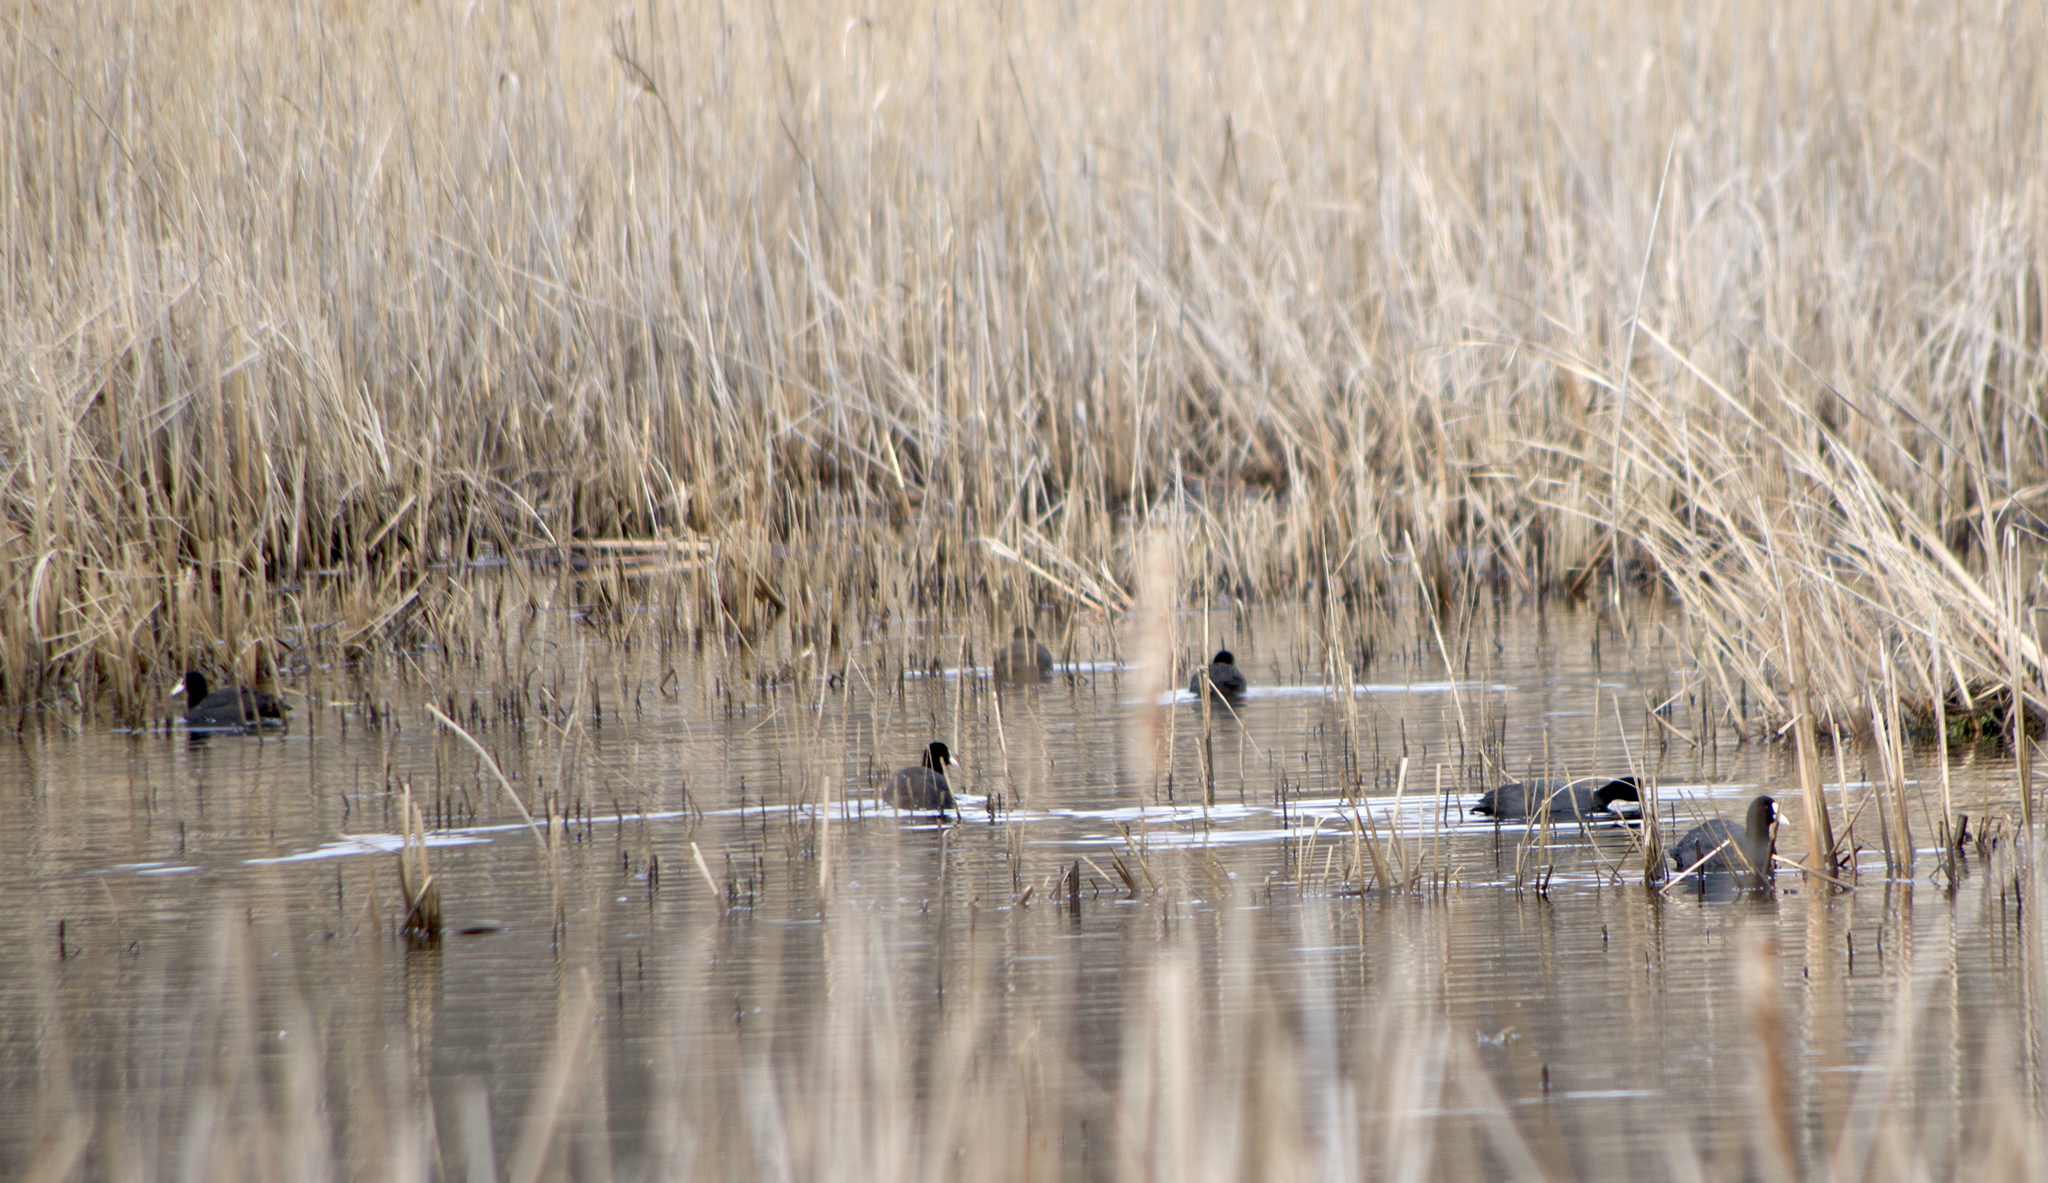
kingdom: Animalia
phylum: Chordata
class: Aves
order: Gruiformes
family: Rallidae
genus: Fulica
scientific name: Fulica atra
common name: Eurasian coot
